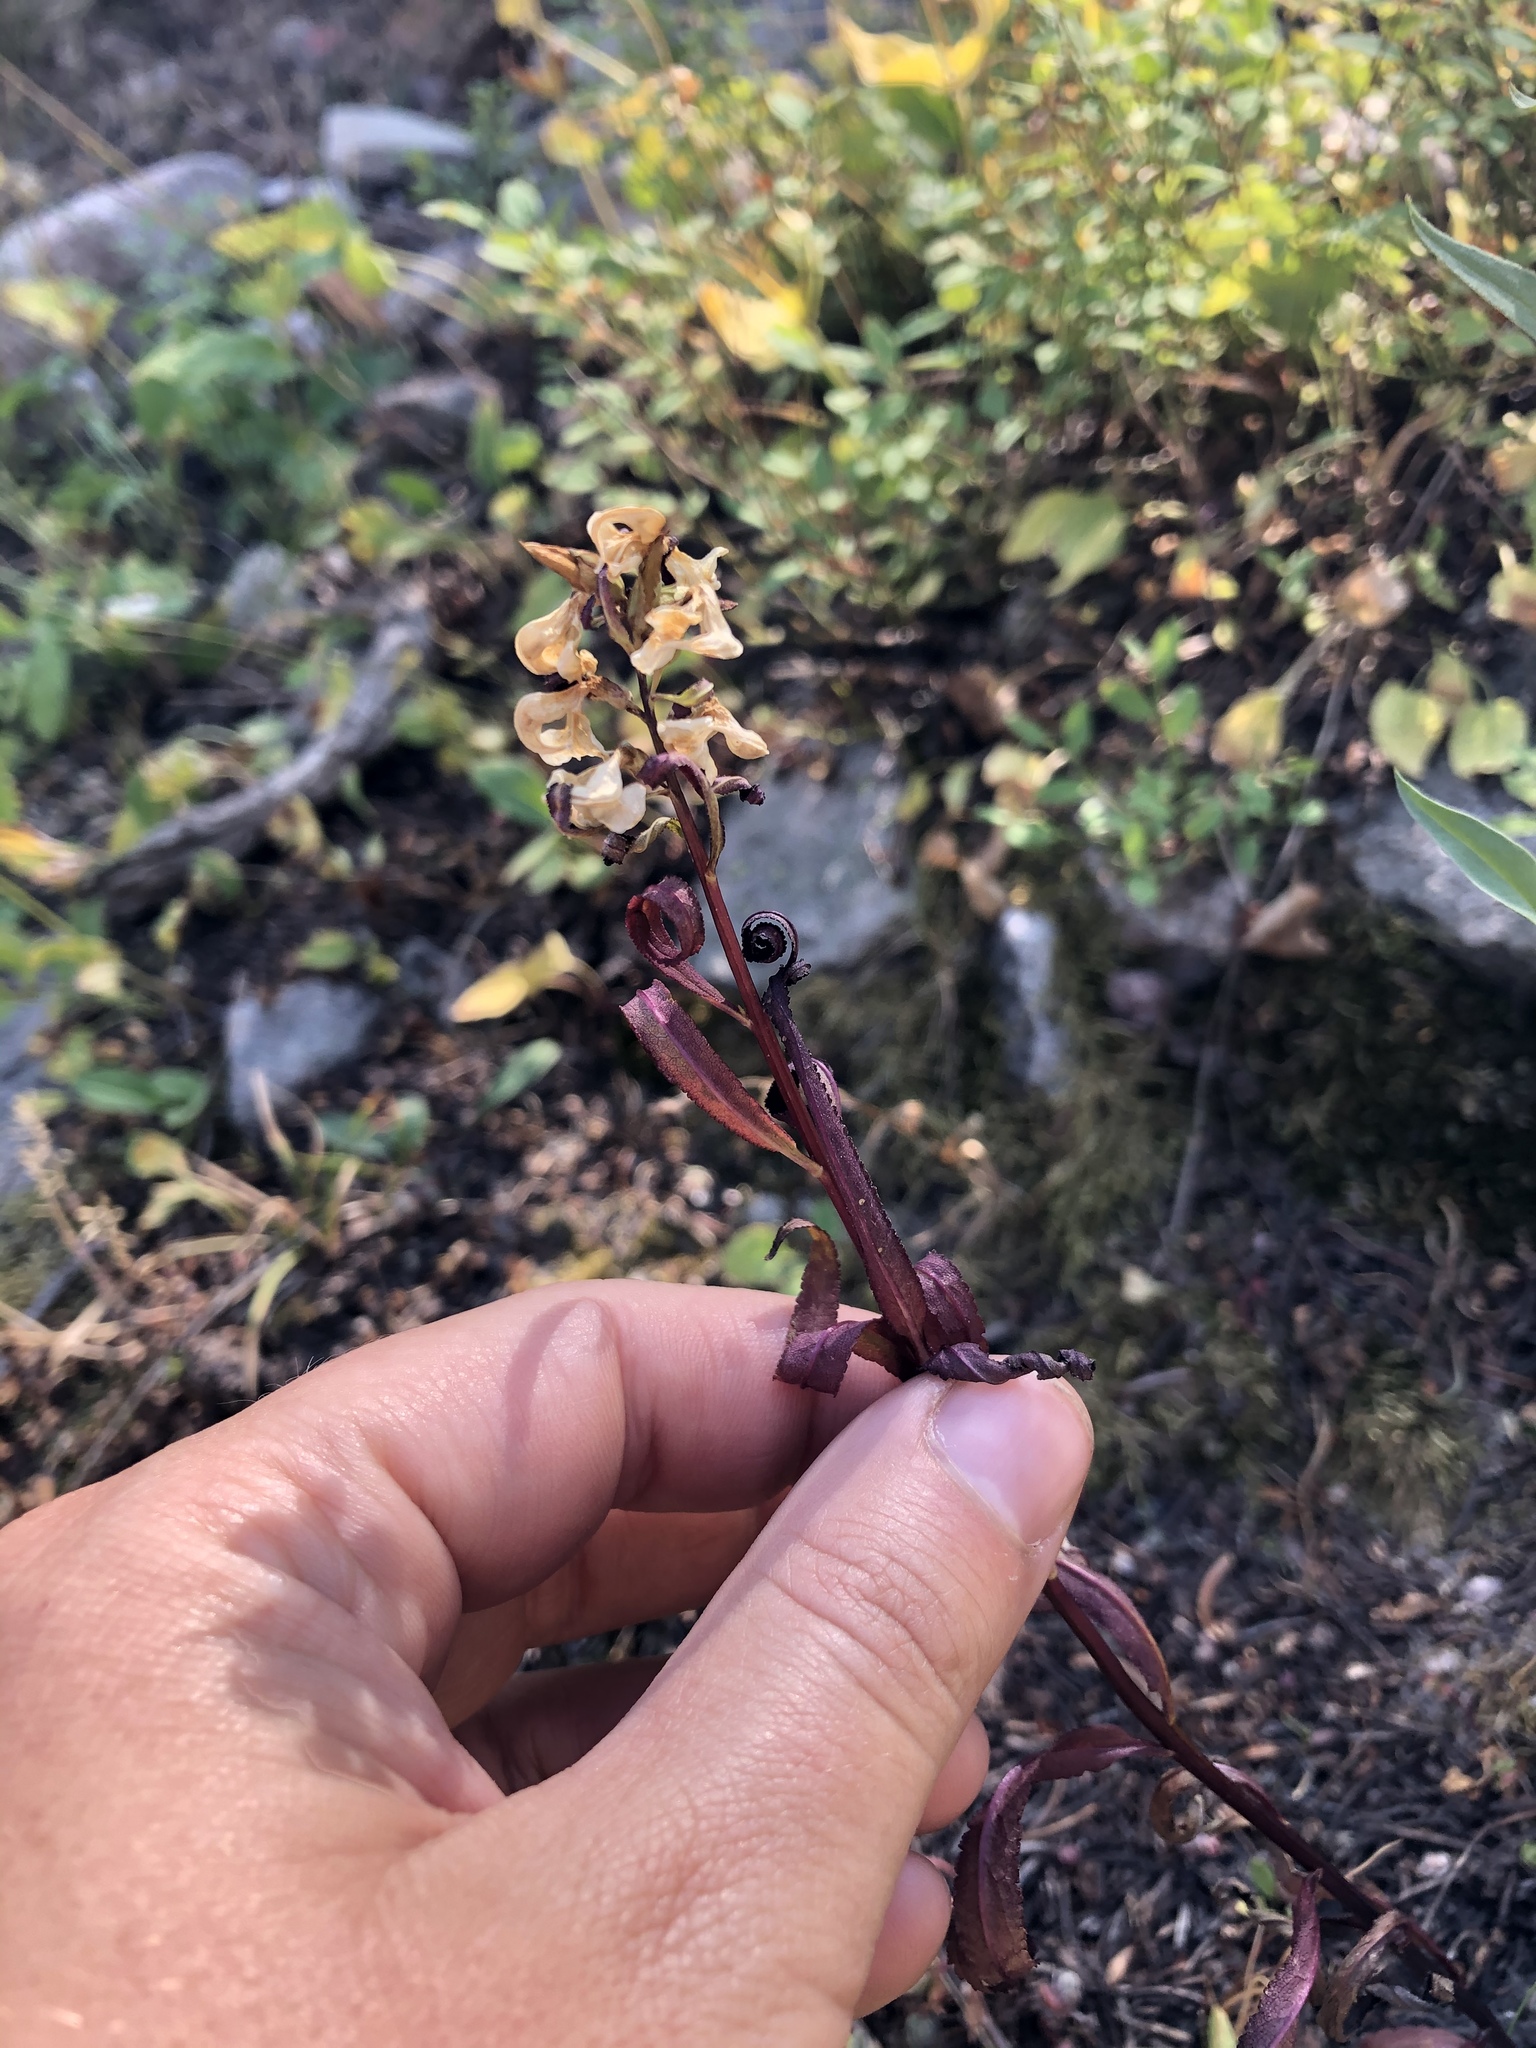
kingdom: Plantae
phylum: Tracheophyta
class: Magnoliopsida
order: Lamiales
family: Orobanchaceae
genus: Pedicularis
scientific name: Pedicularis racemosa
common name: Leafy lousewort
